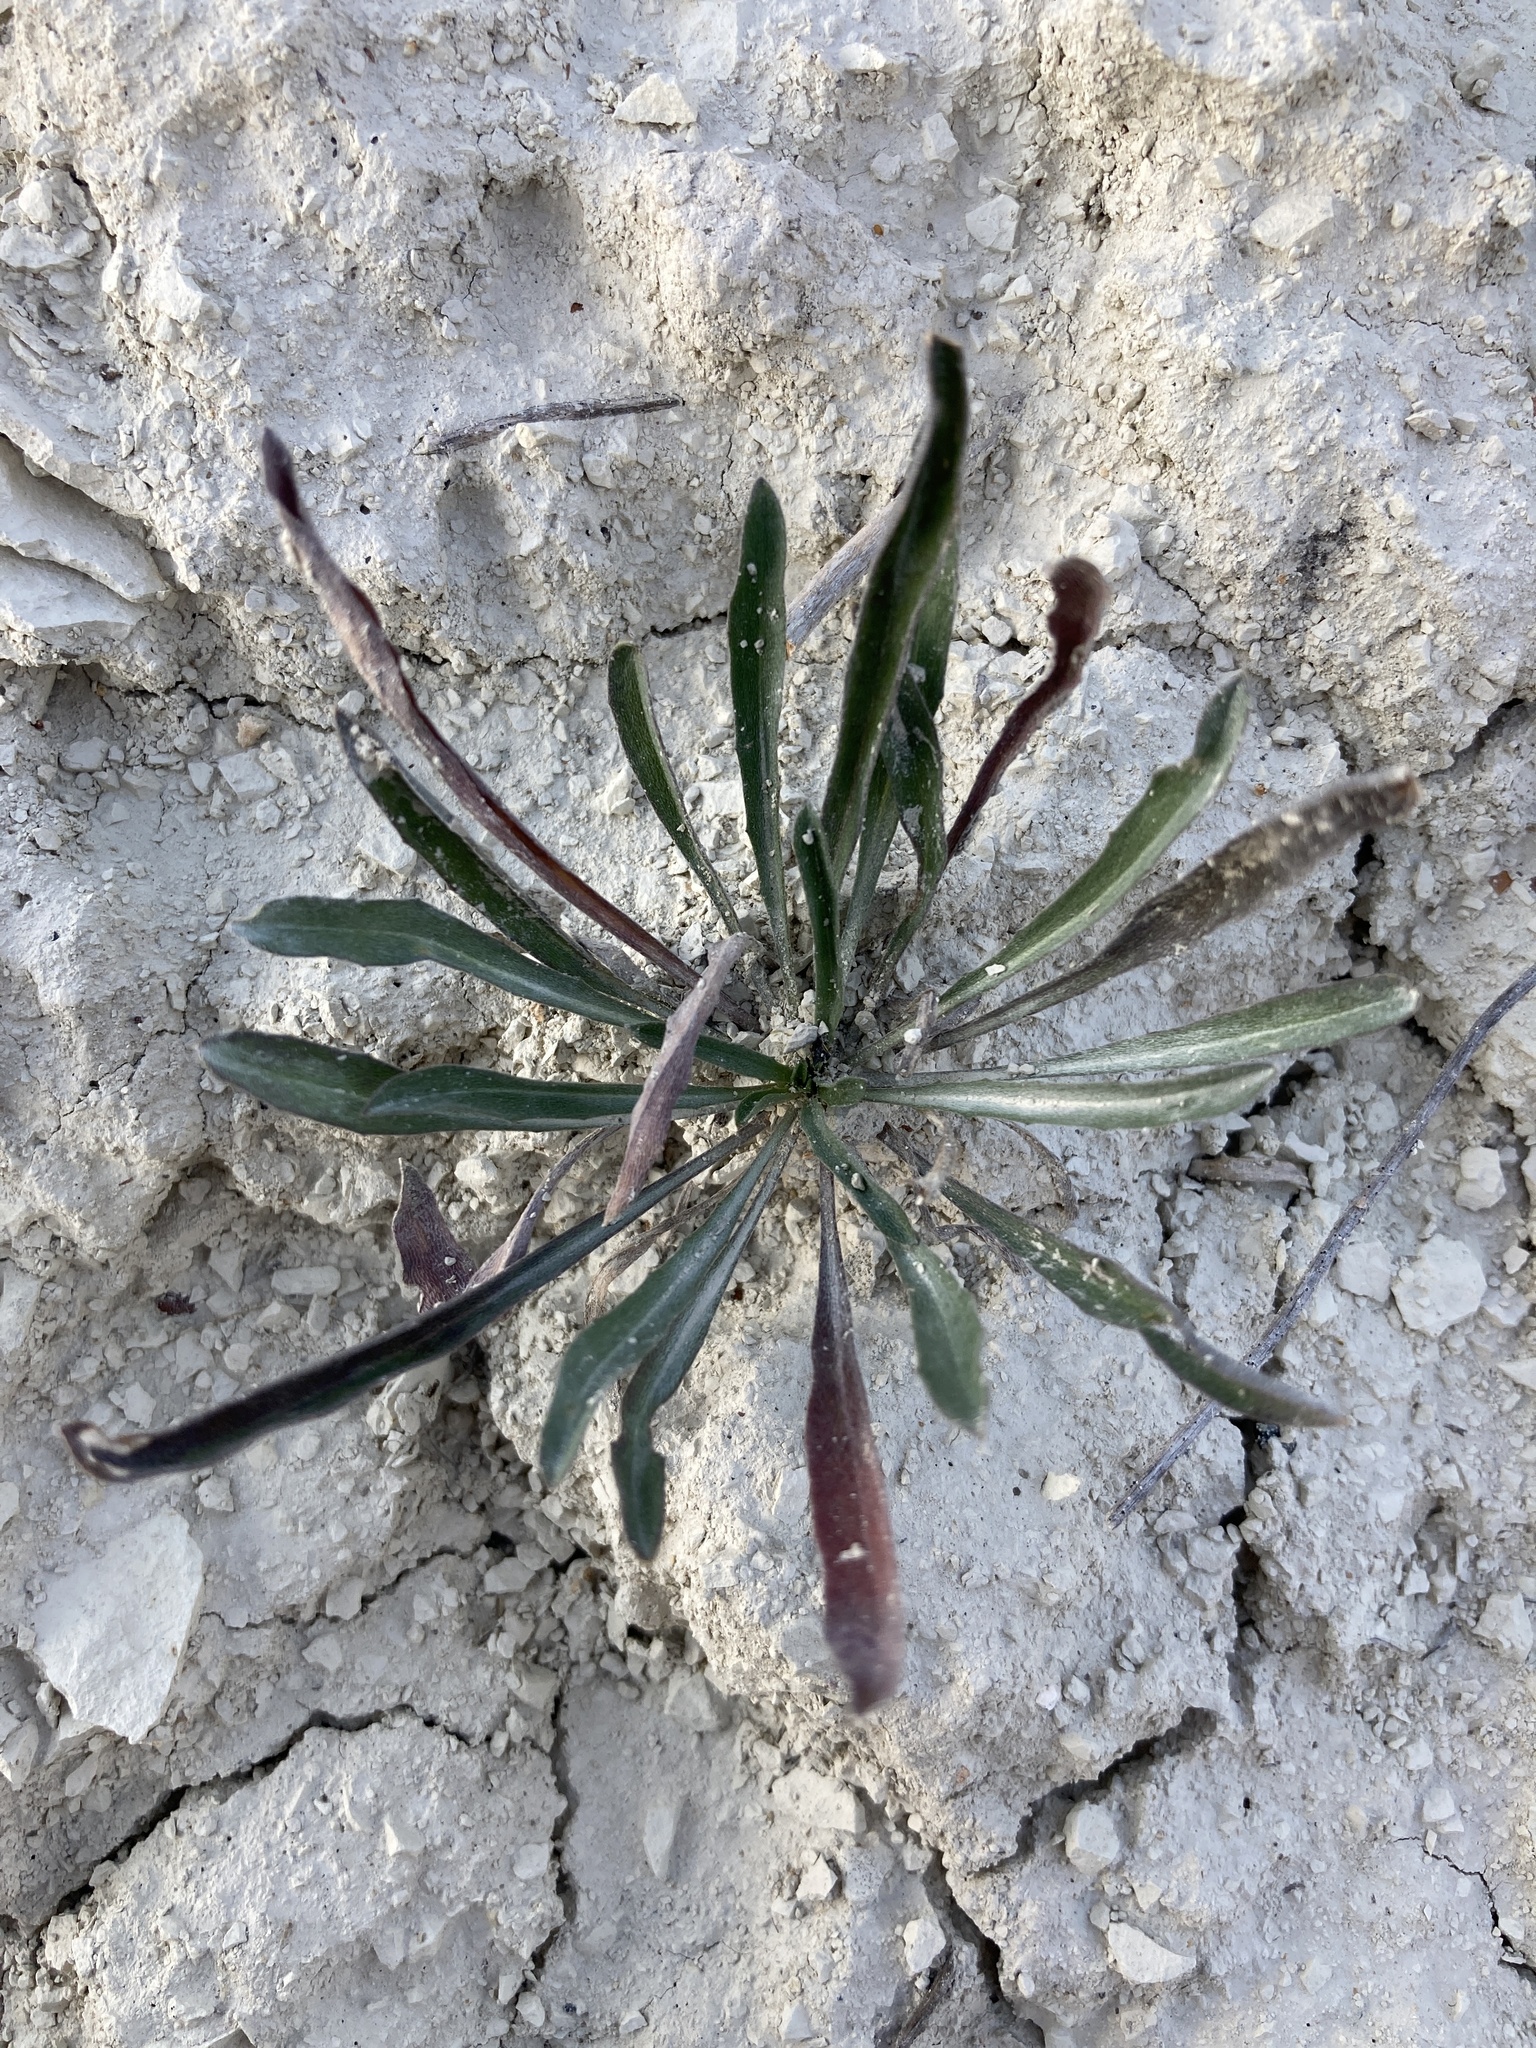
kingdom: Plantae
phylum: Tracheophyta
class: Magnoliopsida
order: Brassicales
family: Brassicaceae
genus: Matthiola
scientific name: Matthiola fragrans
